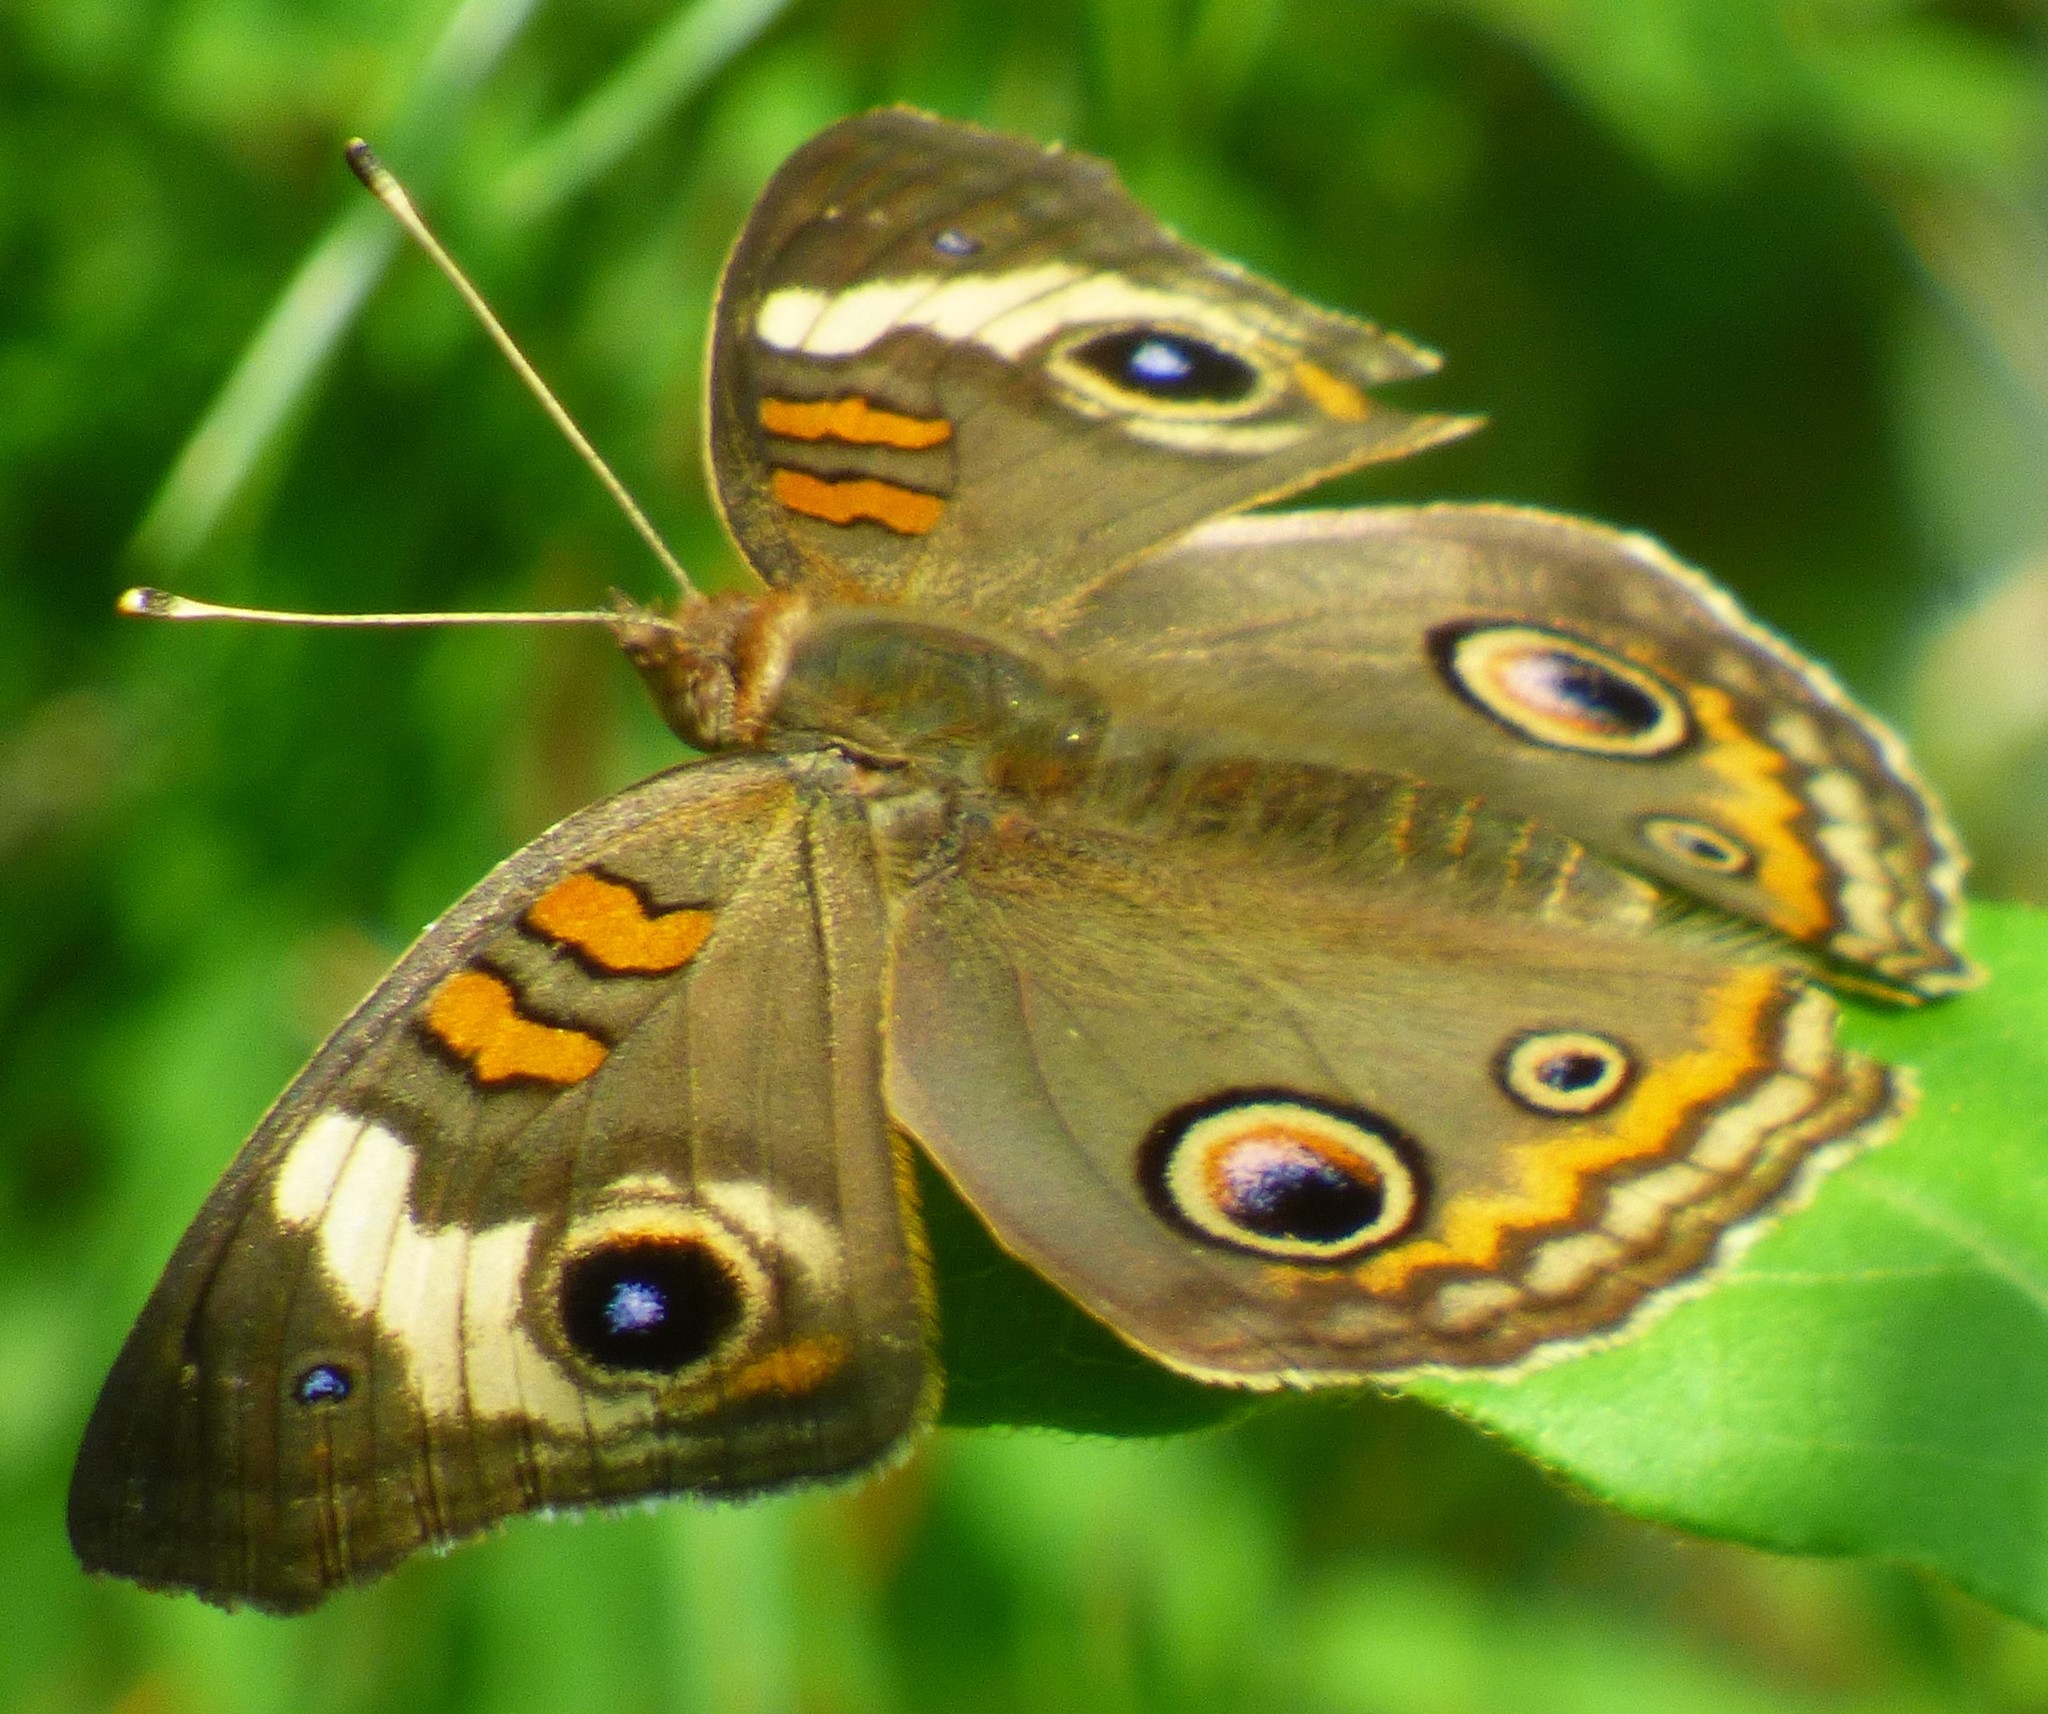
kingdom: Animalia
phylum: Arthropoda
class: Insecta
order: Lepidoptera
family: Nymphalidae
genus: Junonia
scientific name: Junonia coenia
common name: Common buckeye
